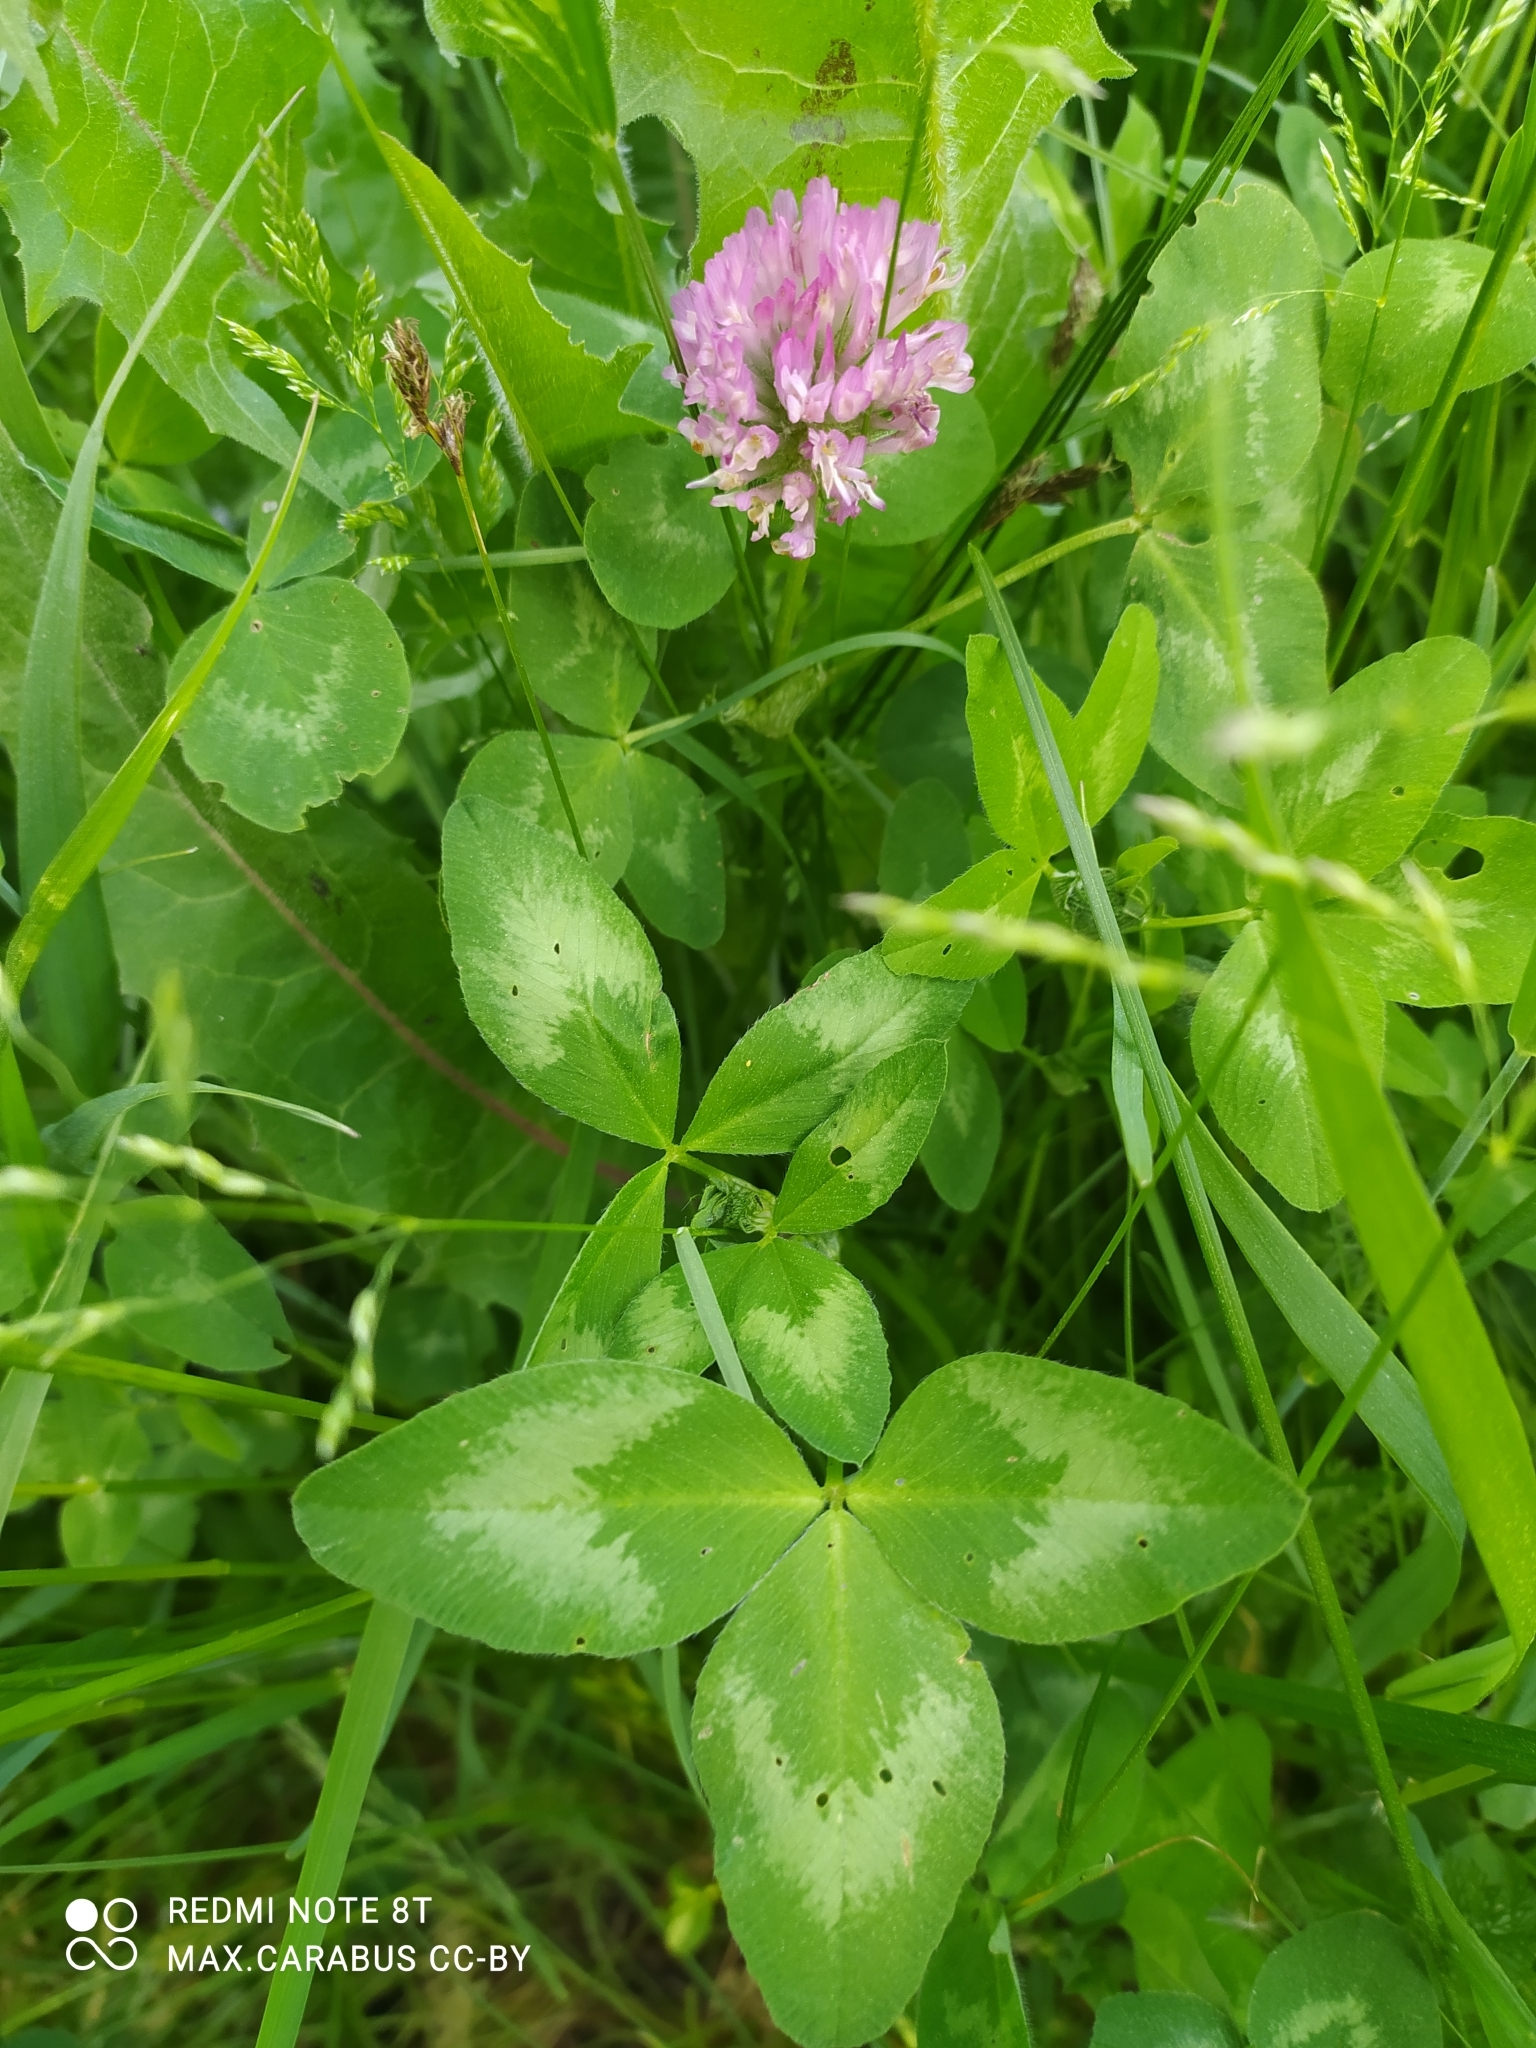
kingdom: Plantae
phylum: Tracheophyta
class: Magnoliopsida
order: Fabales
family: Fabaceae
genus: Trifolium
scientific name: Trifolium pratense
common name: Red clover
